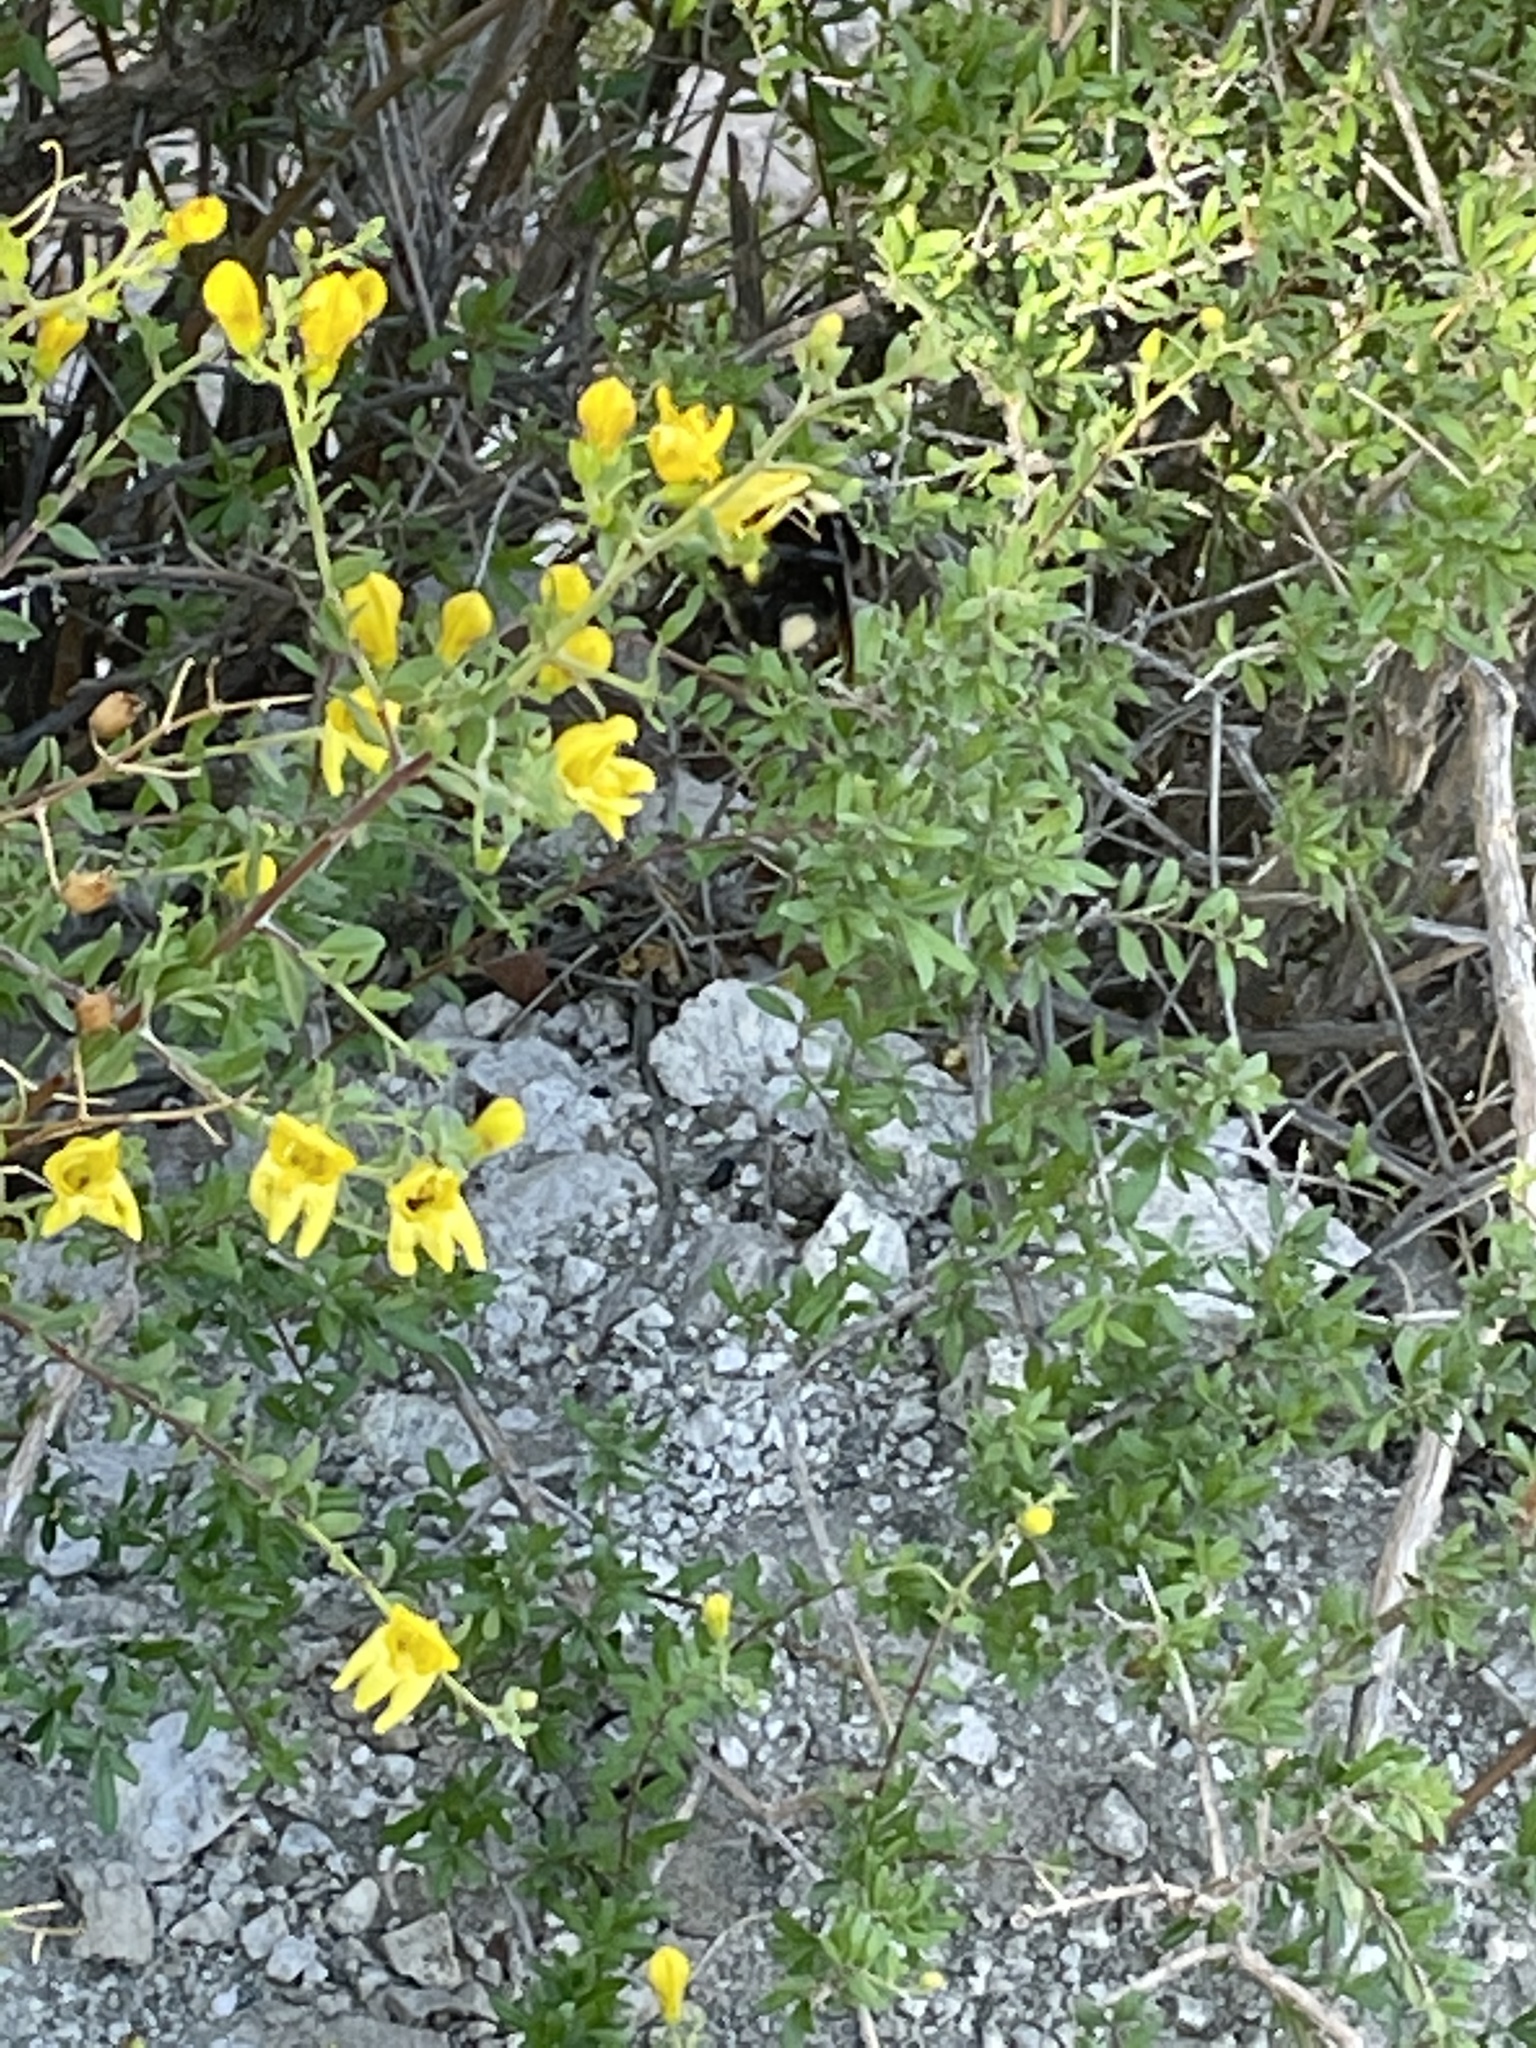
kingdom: Plantae
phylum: Tracheophyta
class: Magnoliopsida
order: Lamiales
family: Plantaginaceae
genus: Keckiella
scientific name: Keckiella antirrhinoides
